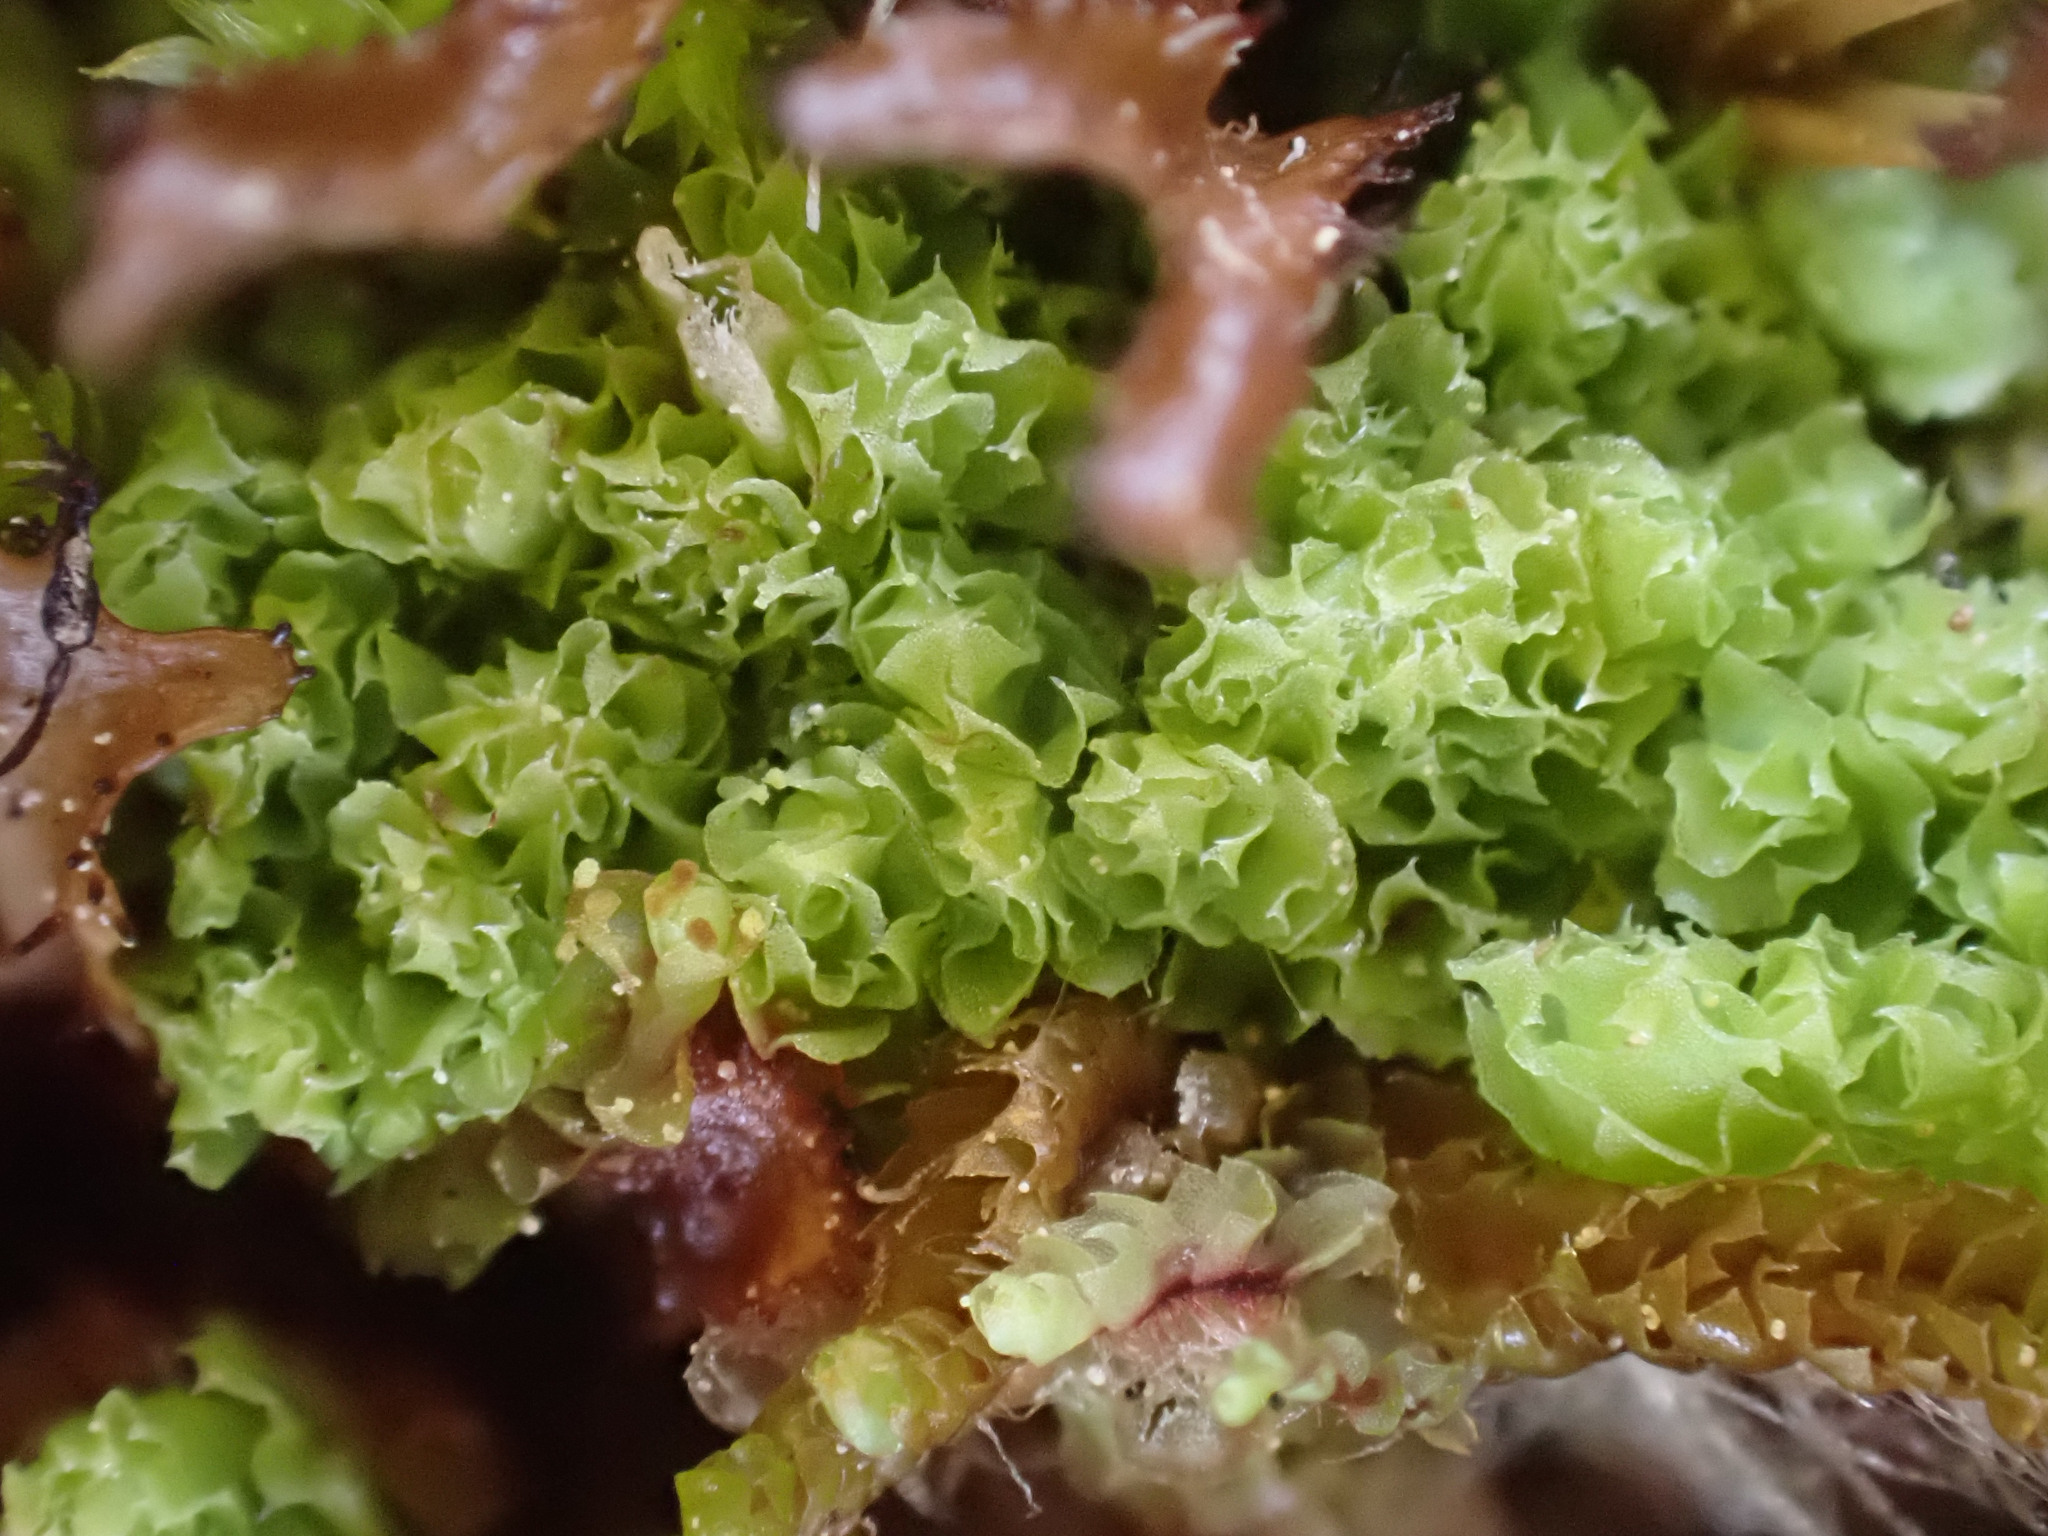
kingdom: Plantae
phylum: Marchantiophyta
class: Jungermanniopsida
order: Jungermanniales
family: Scapaniaceae
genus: Schistochilopsis
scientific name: Schistochilopsis incisa
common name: Jagged notchwort
